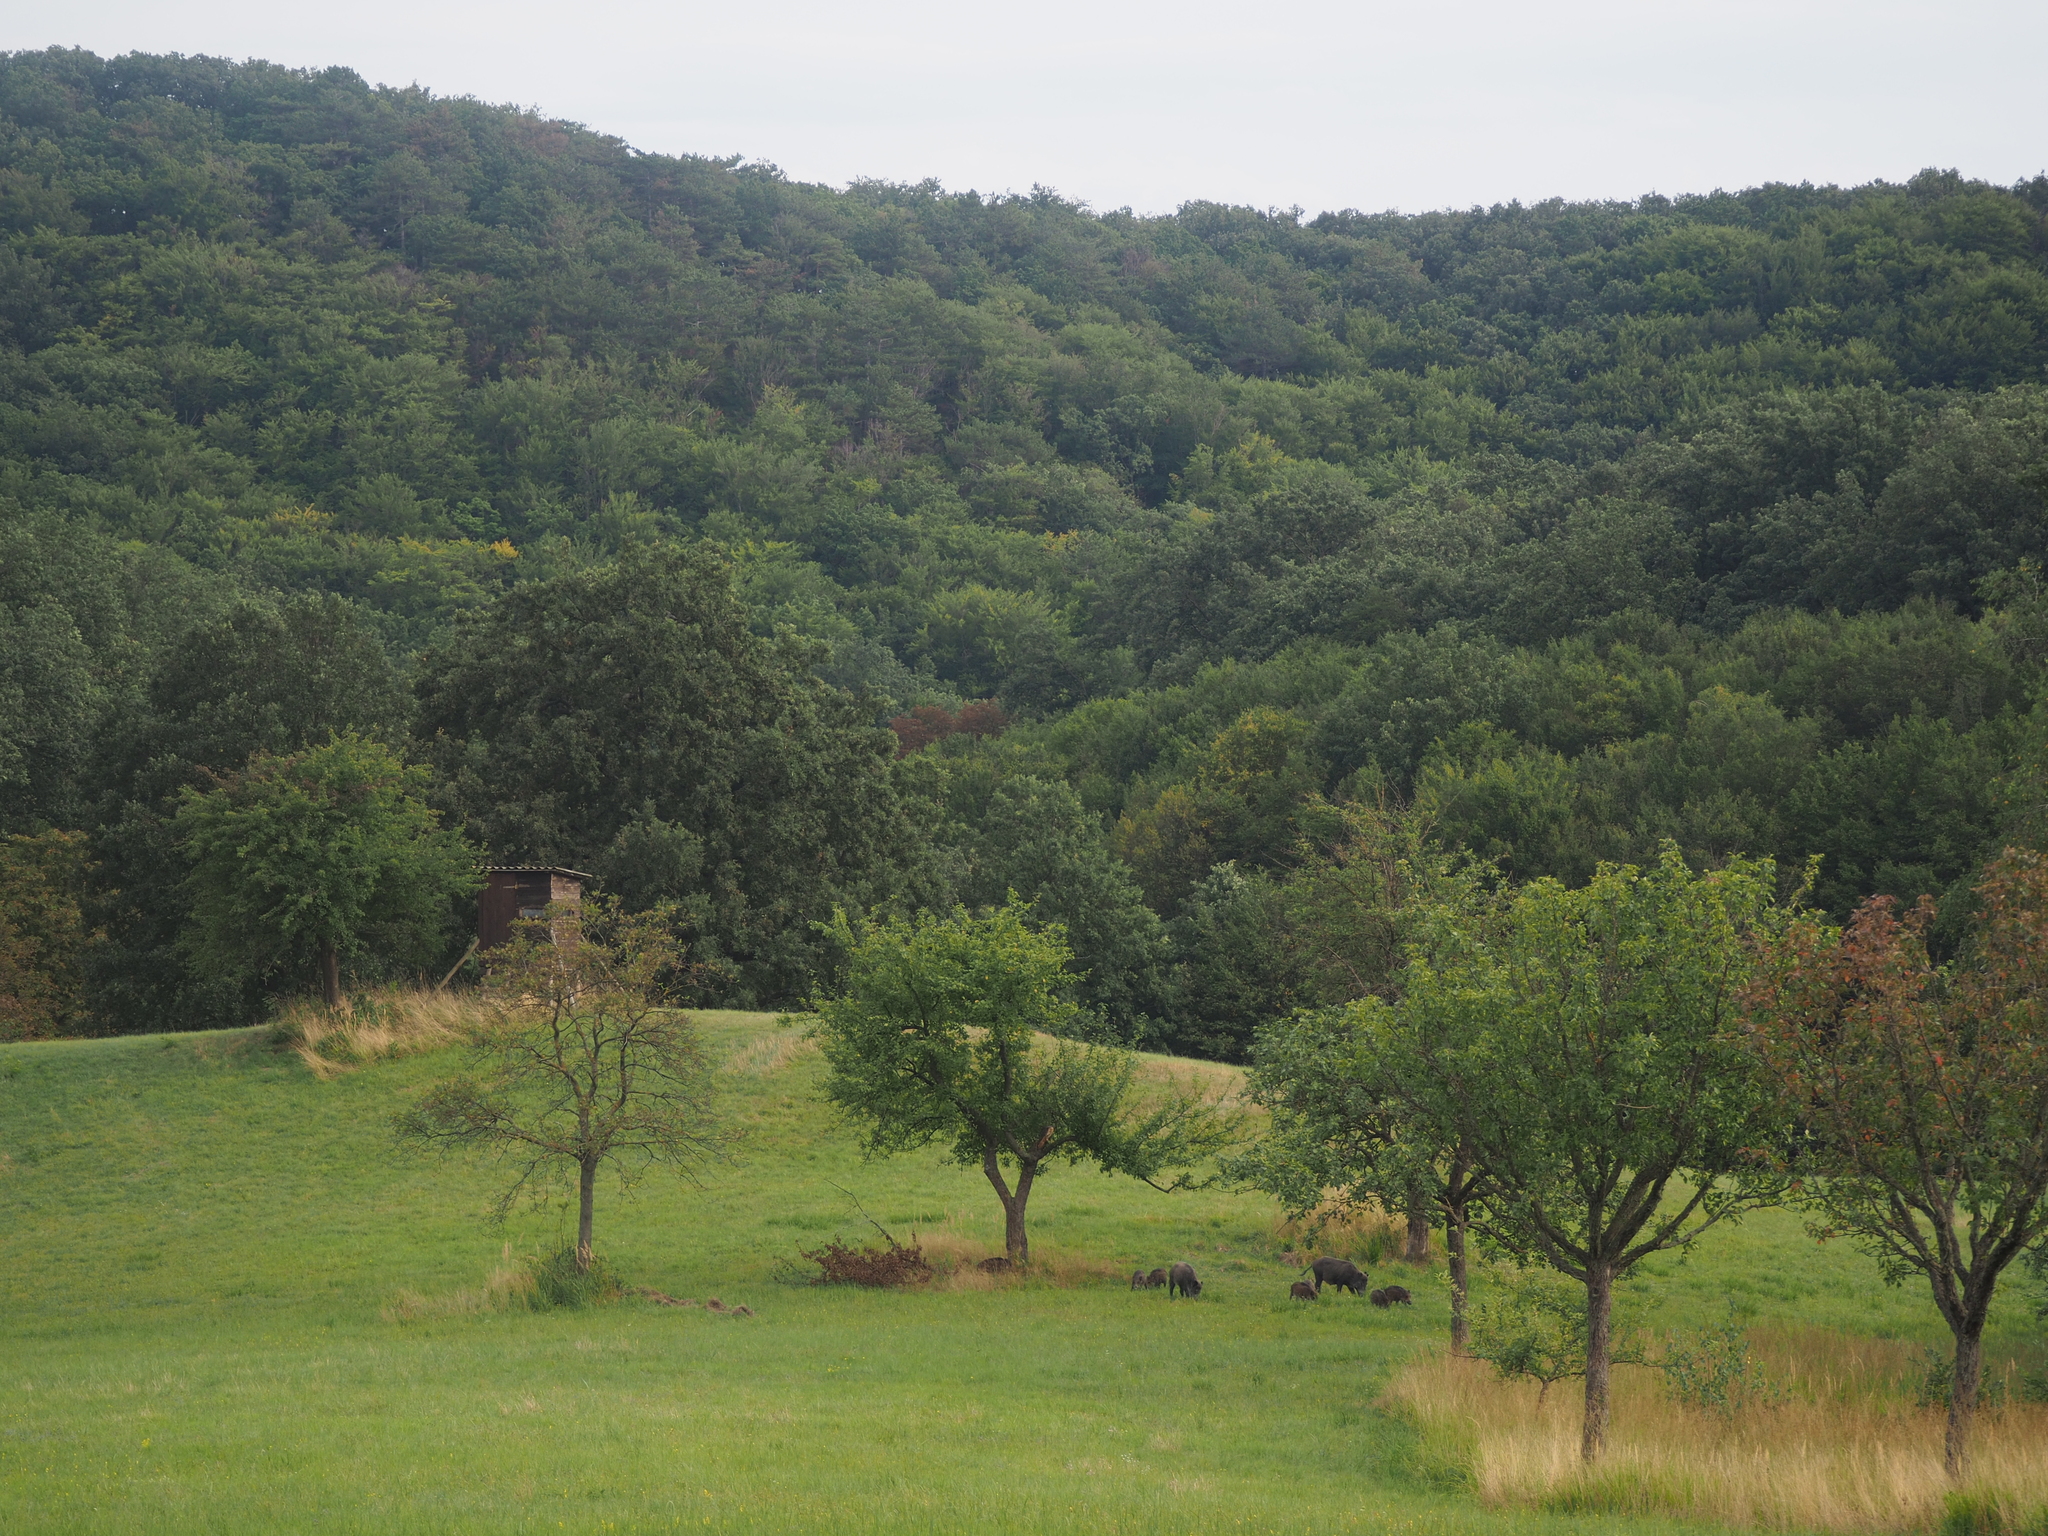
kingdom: Animalia
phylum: Chordata
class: Mammalia
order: Artiodactyla
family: Suidae
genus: Sus
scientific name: Sus scrofa
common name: Wild boar
